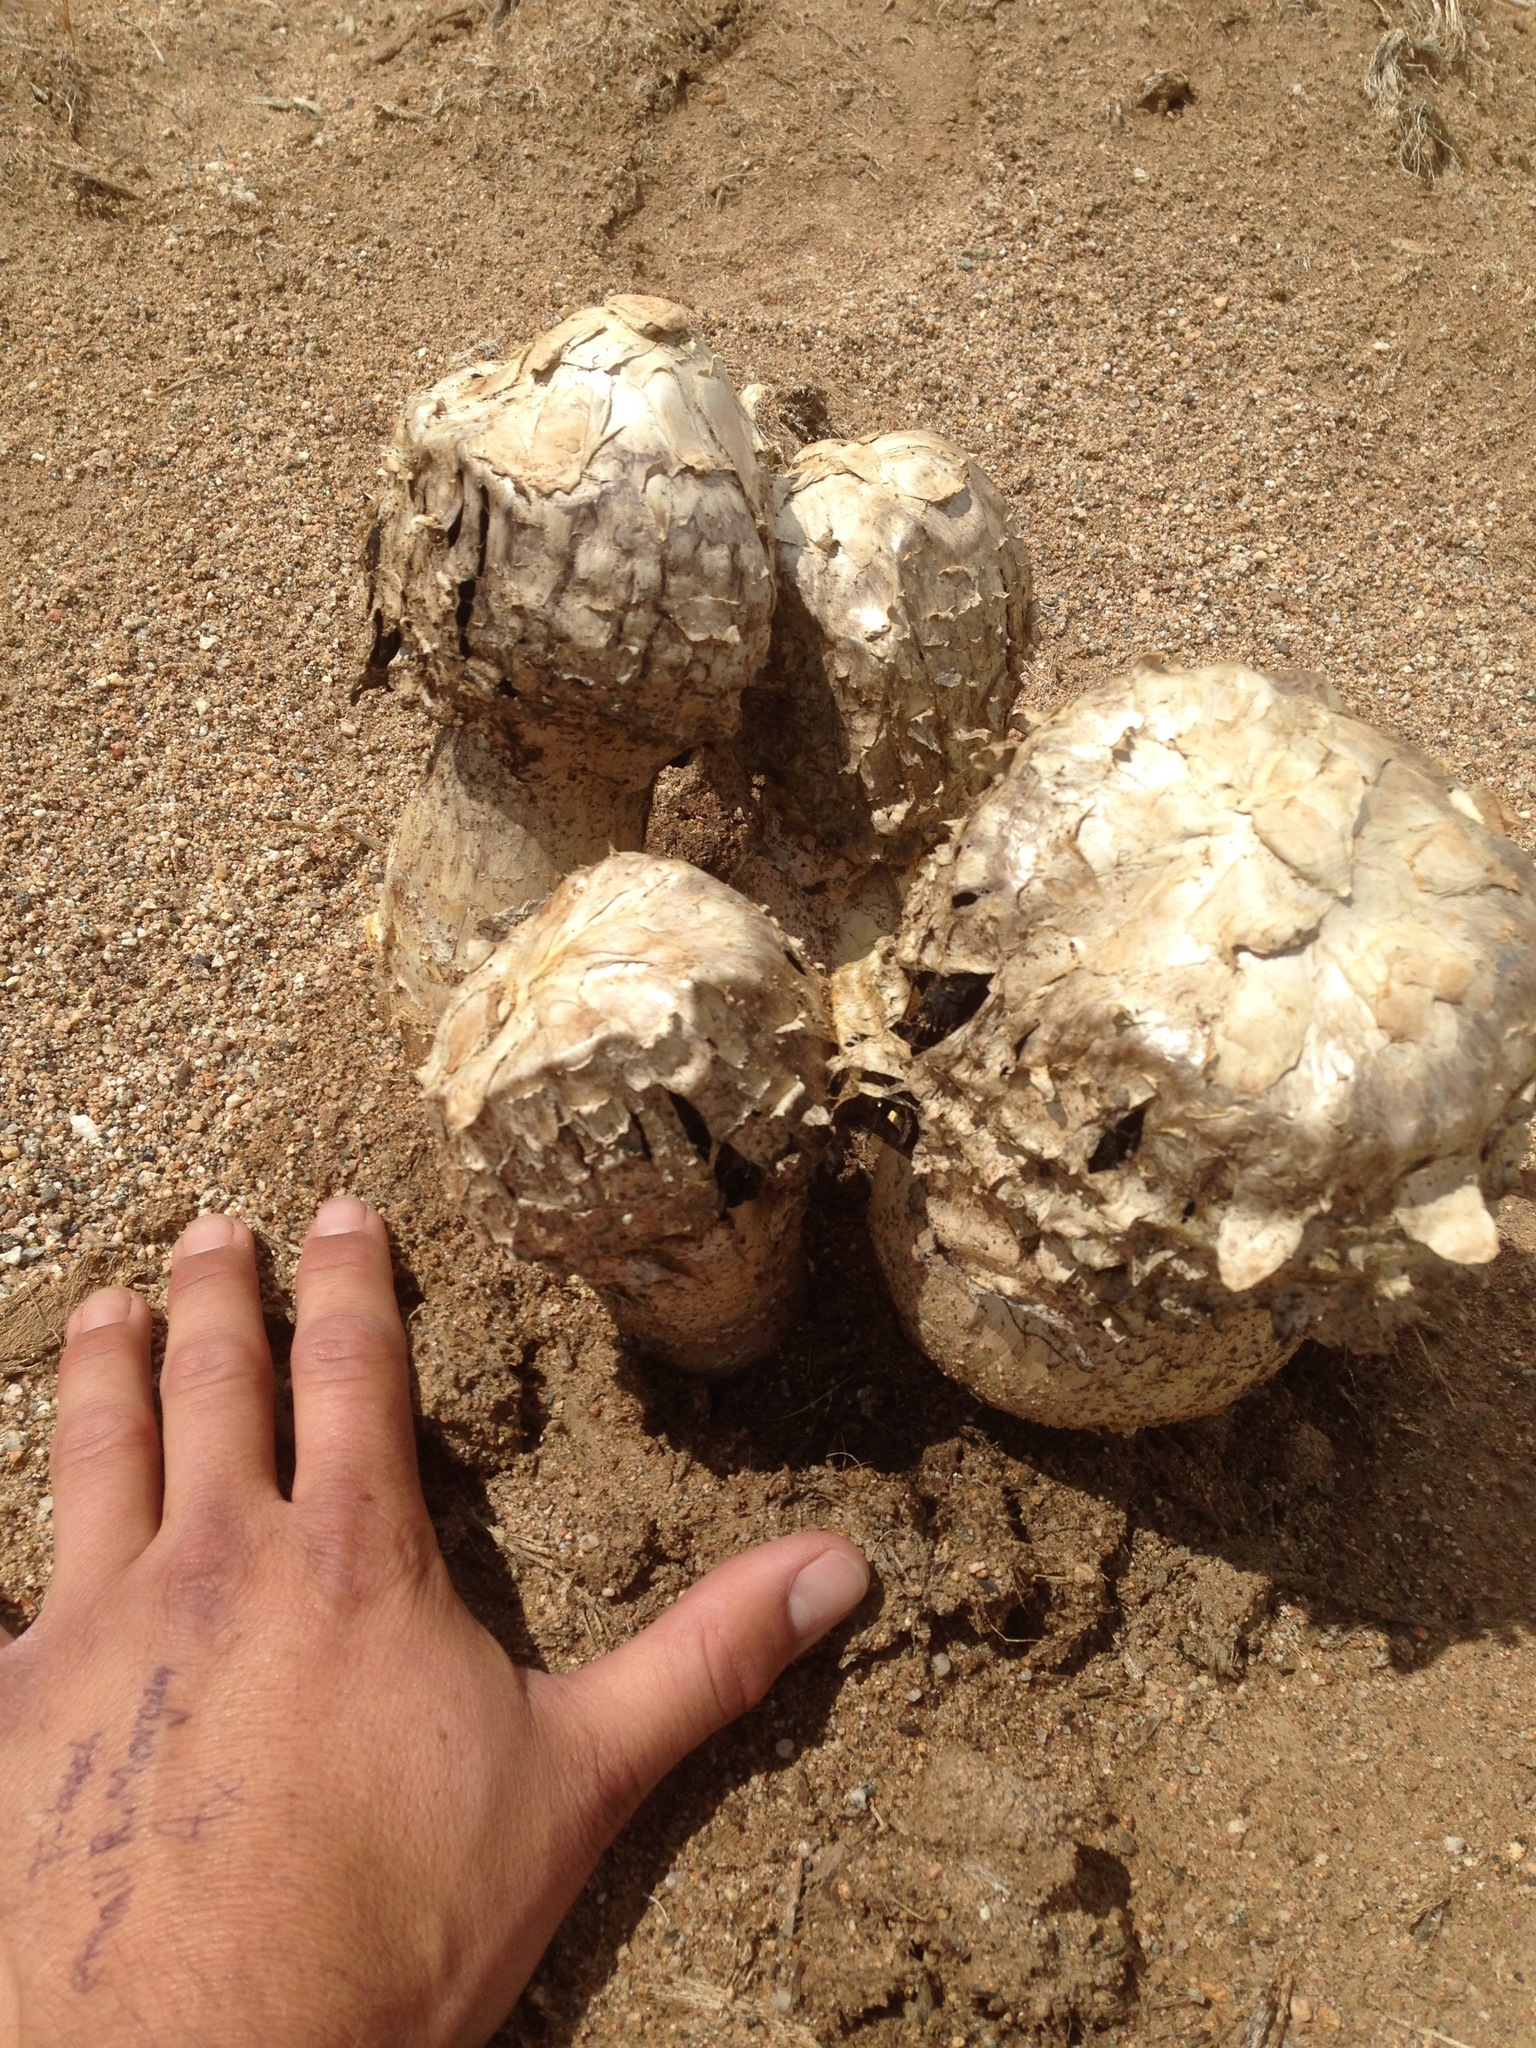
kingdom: Fungi
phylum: Basidiomycota
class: Agaricomycetes
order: Agaricales
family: Agaricaceae
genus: Agaricus
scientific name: Agaricus deserticola
